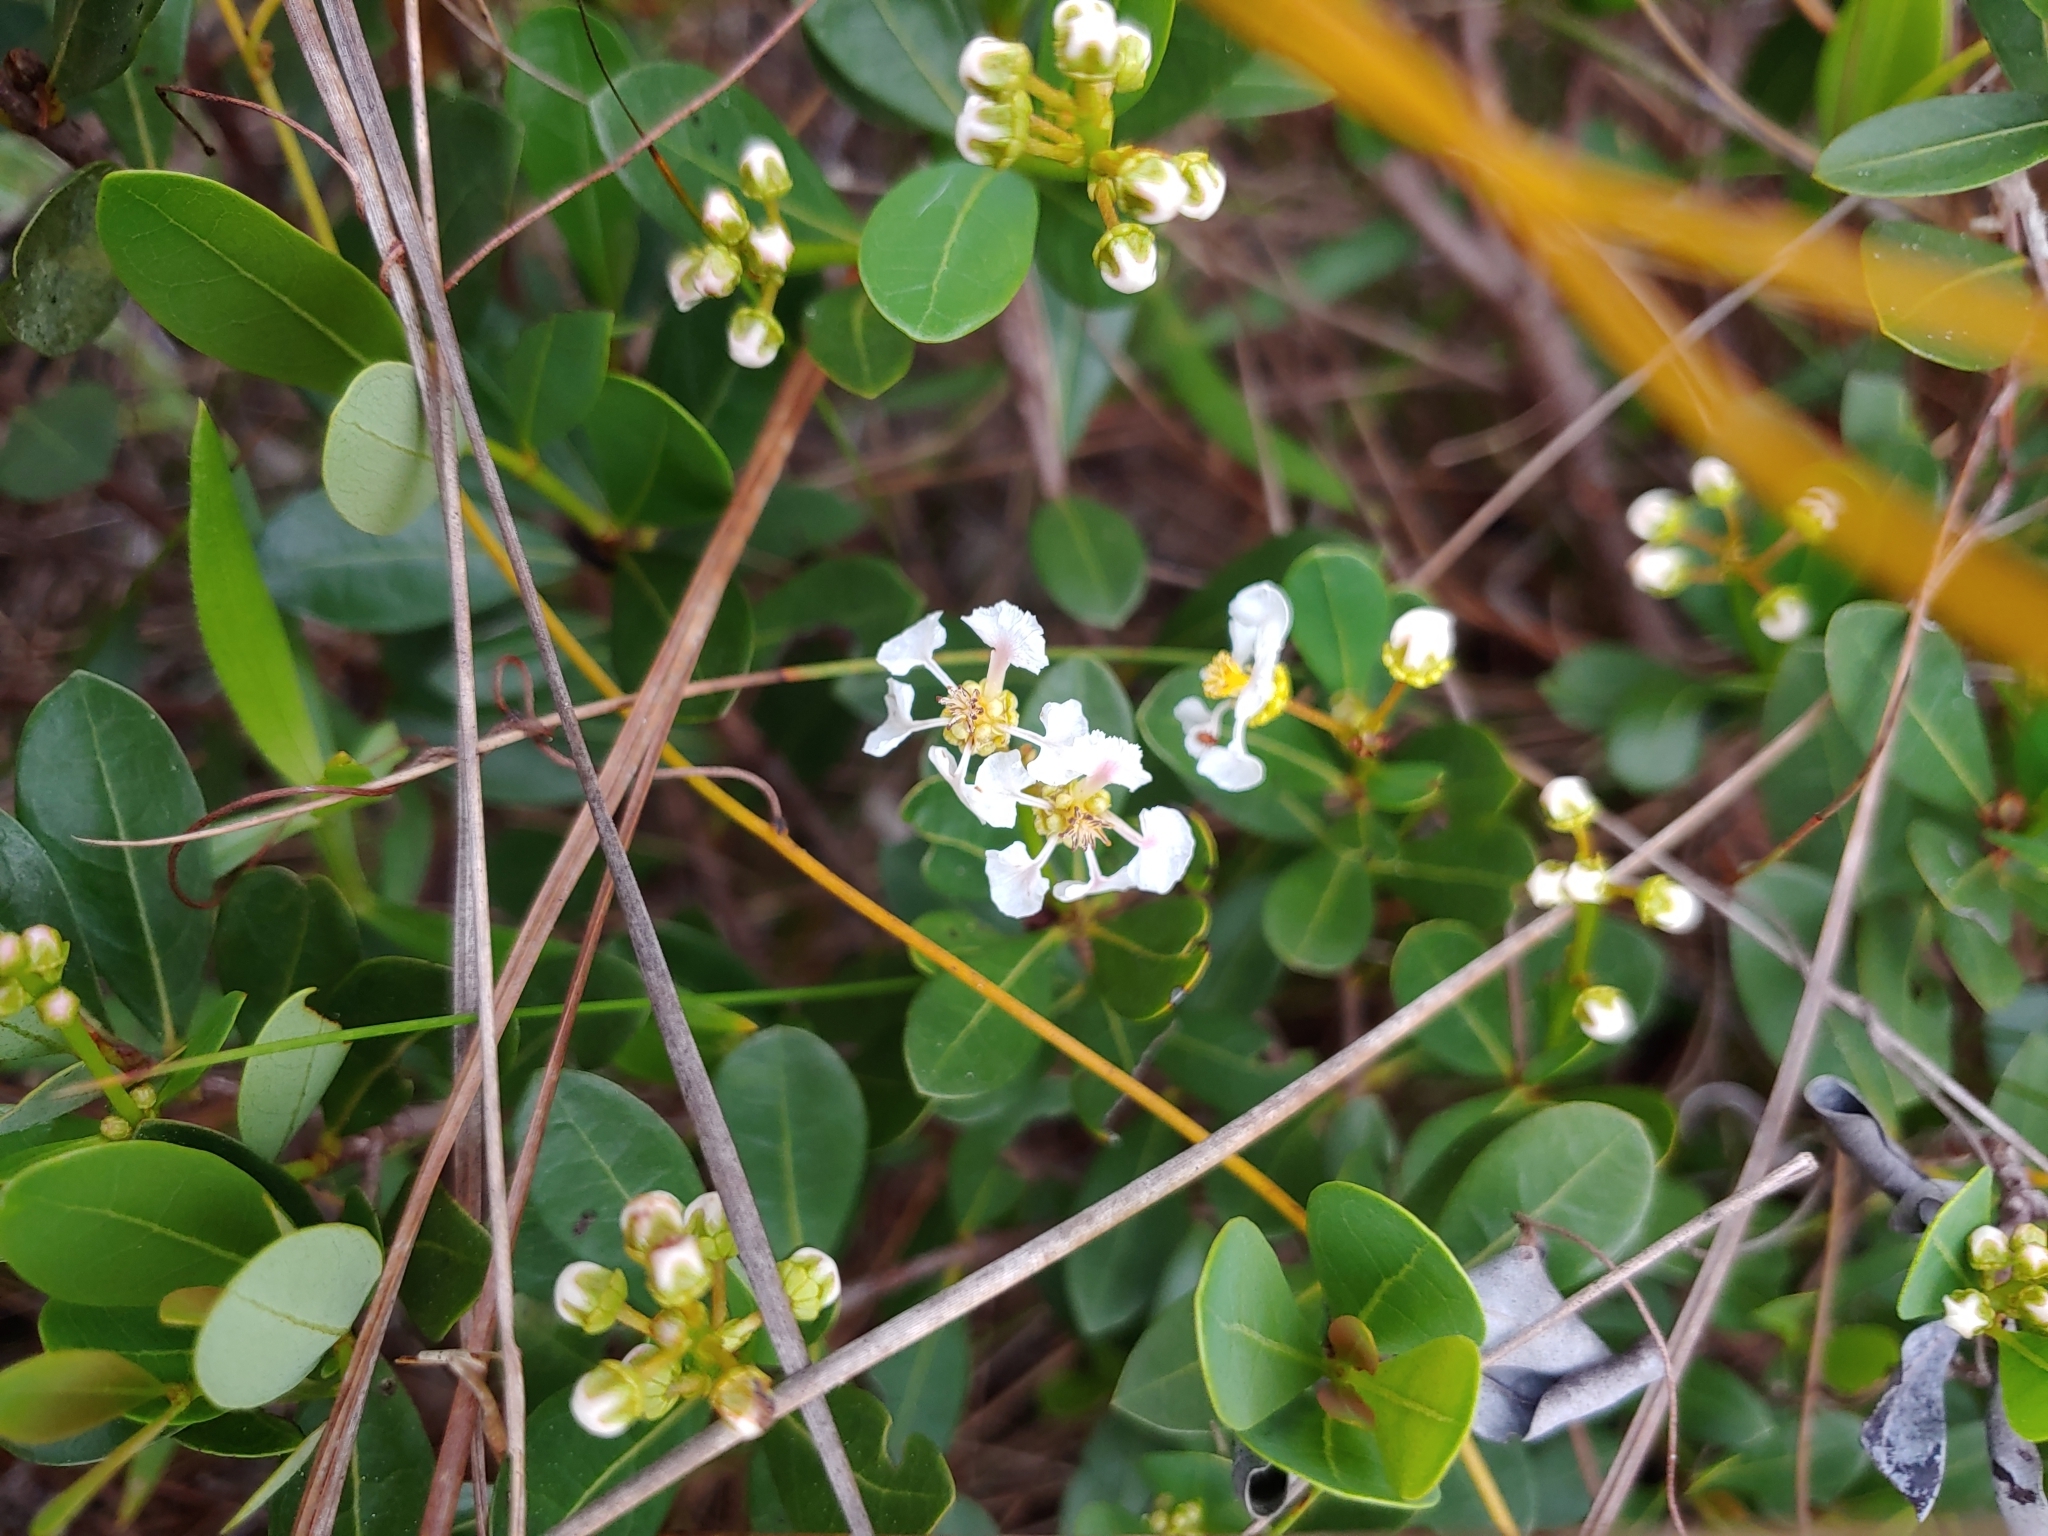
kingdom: Plantae
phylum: Tracheophyta
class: Magnoliopsida
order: Malpighiales
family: Malpighiaceae
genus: Byrsonima
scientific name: Byrsonima lucida
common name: Clam-cherry
